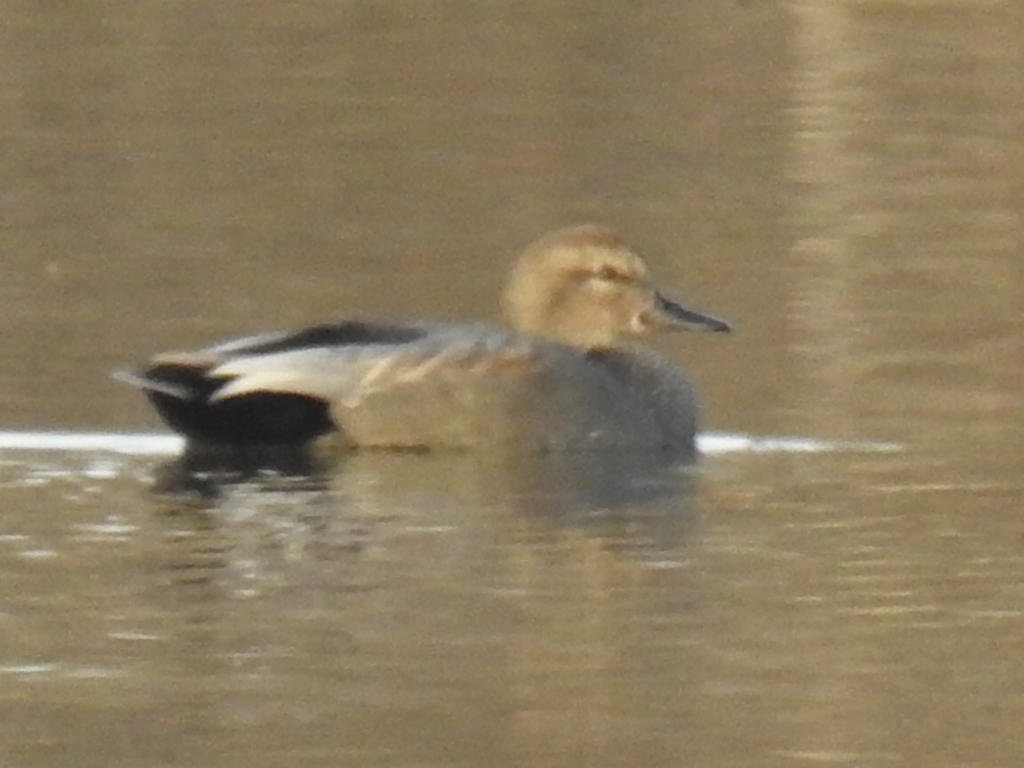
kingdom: Animalia
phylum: Chordata
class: Aves
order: Anseriformes
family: Anatidae
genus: Mareca
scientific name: Mareca strepera
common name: Gadwall
